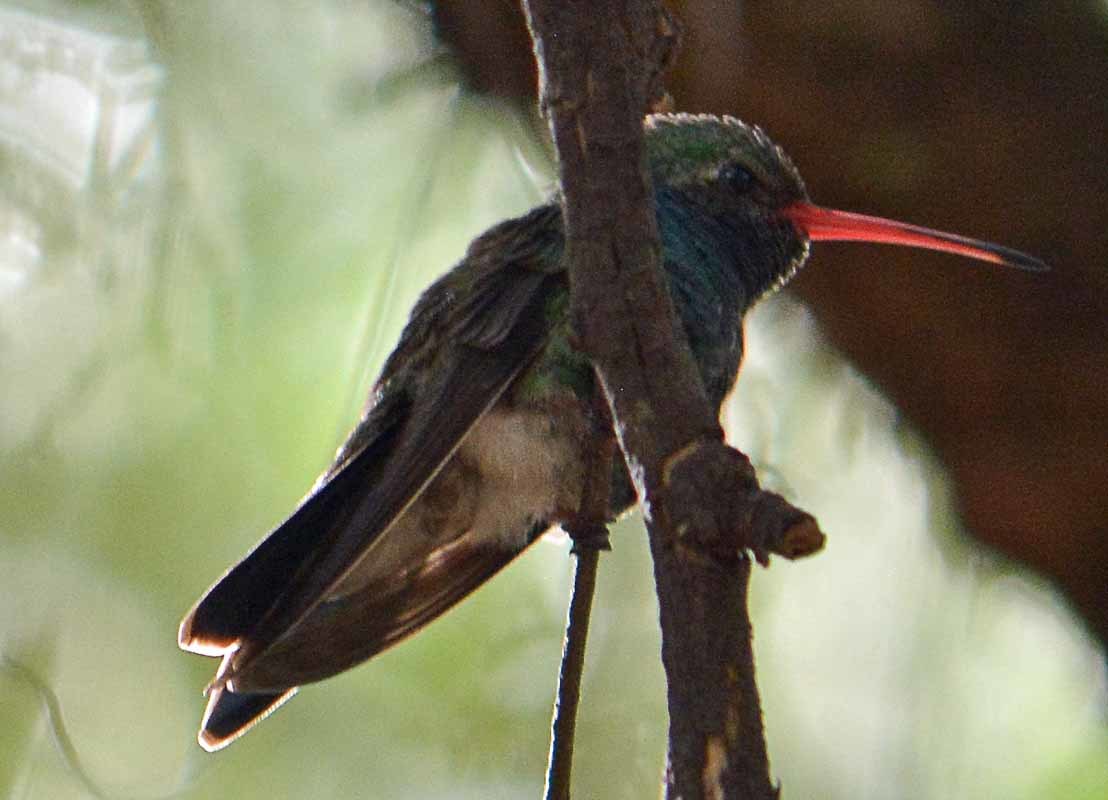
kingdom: Animalia
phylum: Chordata
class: Aves
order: Apodiformes
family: Trochilidae
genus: Cynanthus
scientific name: Cynanthus latirostris
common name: Broad-billed hummingbird
